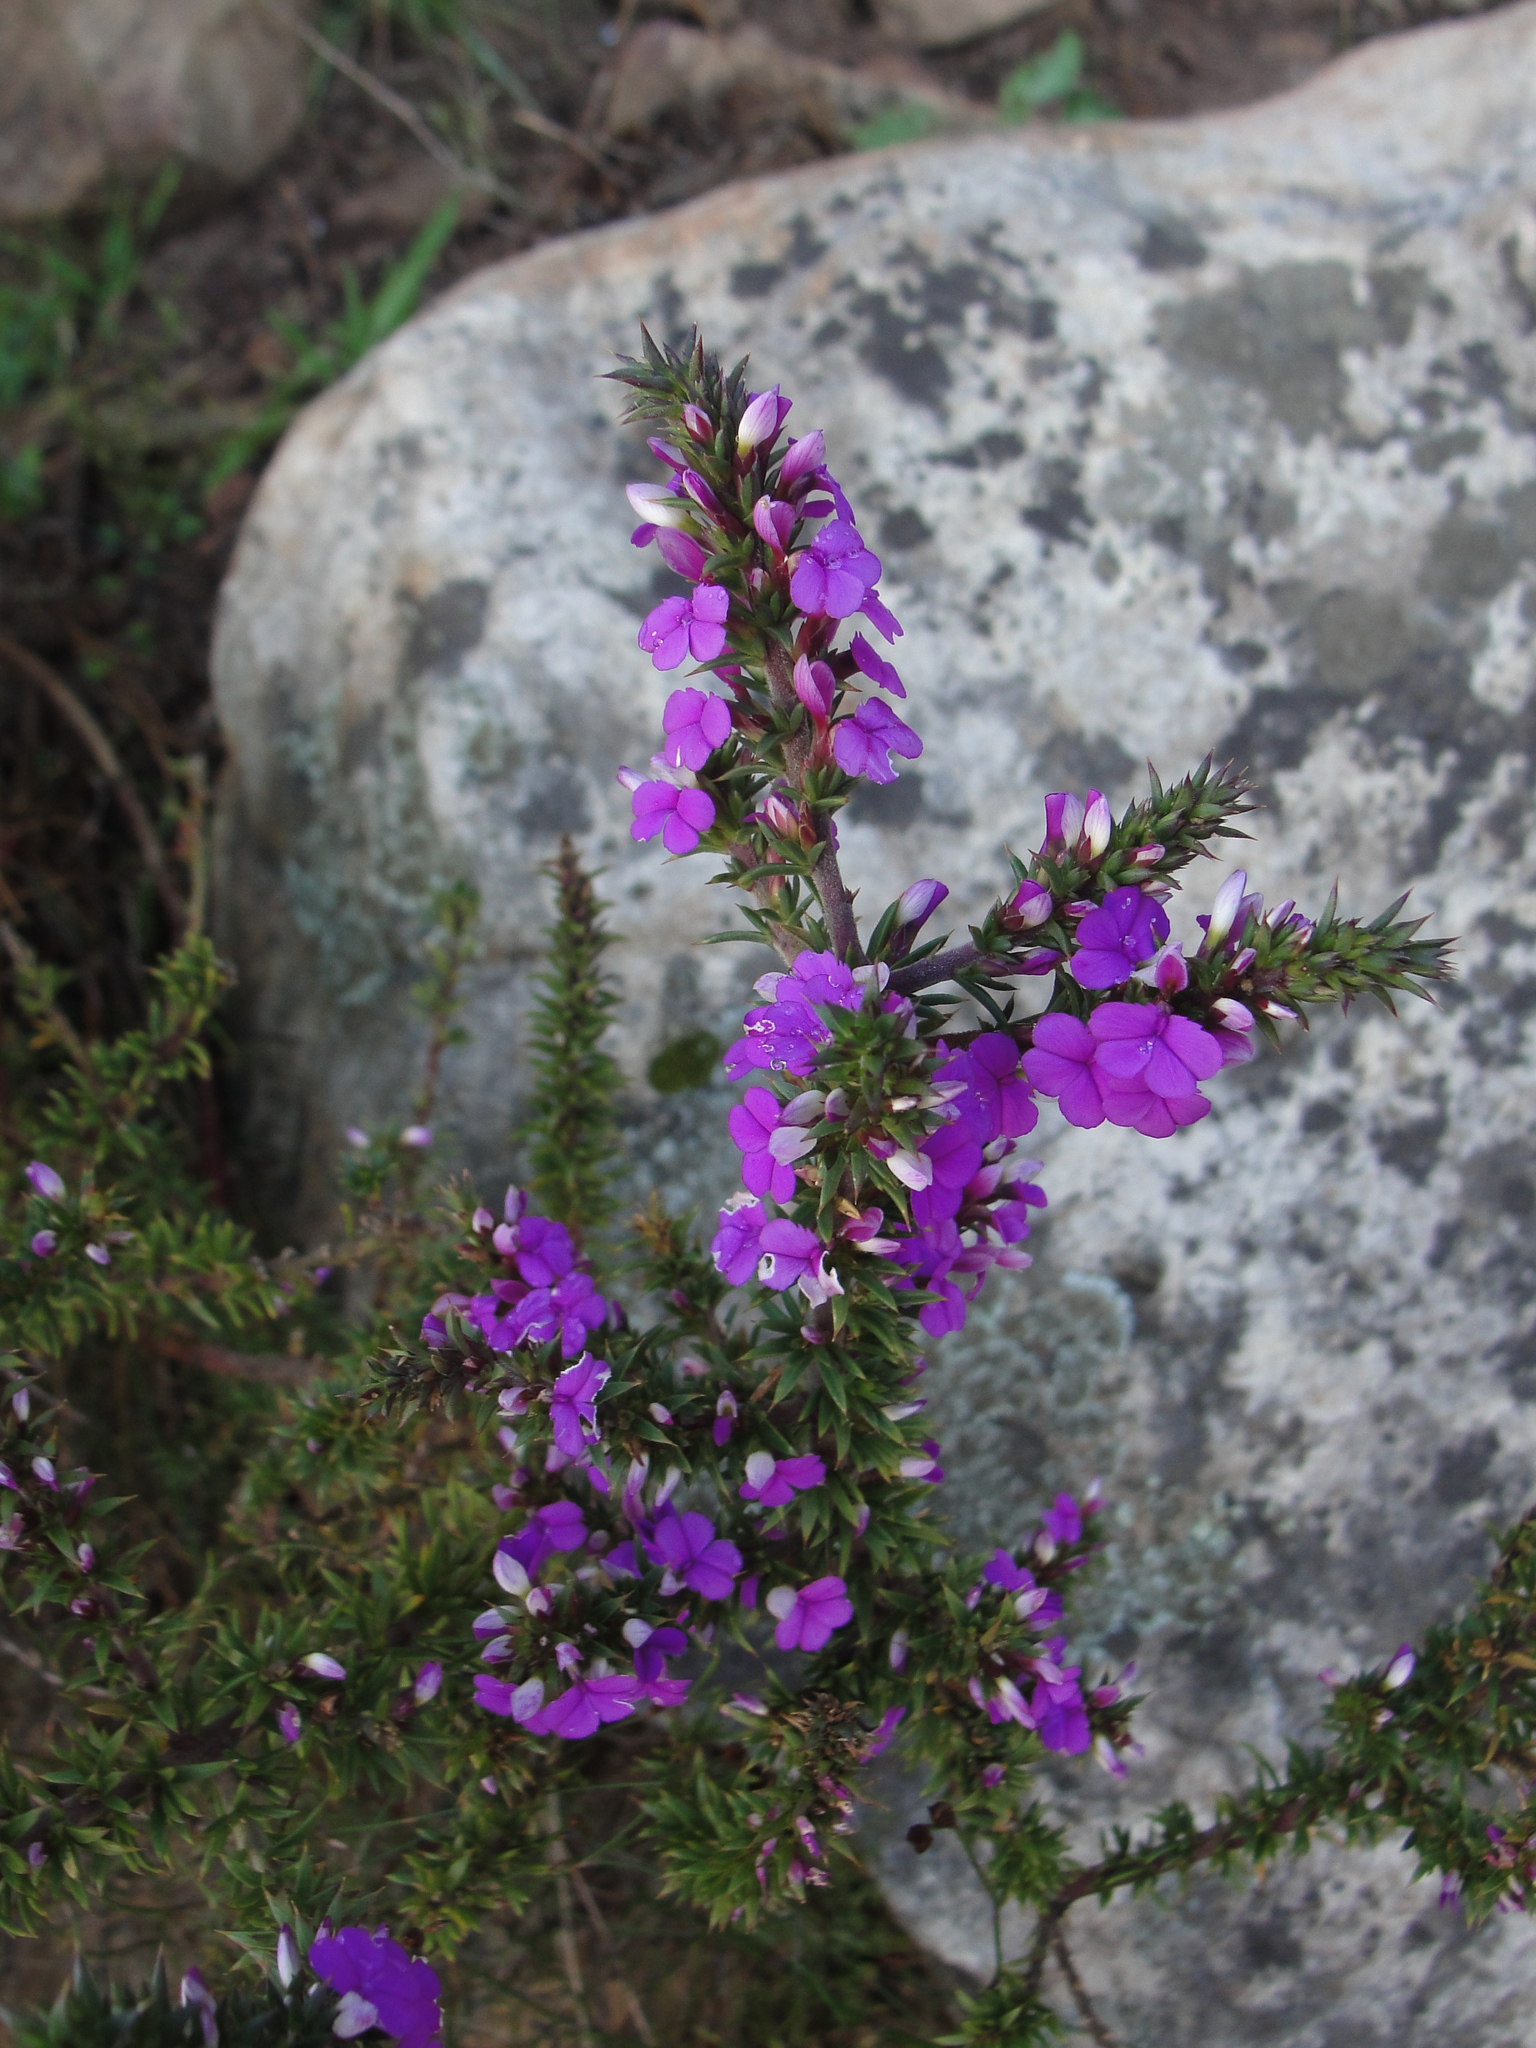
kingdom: Plantae
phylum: Tracheophyta
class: Magnoliopsida
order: Fabales
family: Polygalaceae
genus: Muraltia
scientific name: Muraltia heisteria
